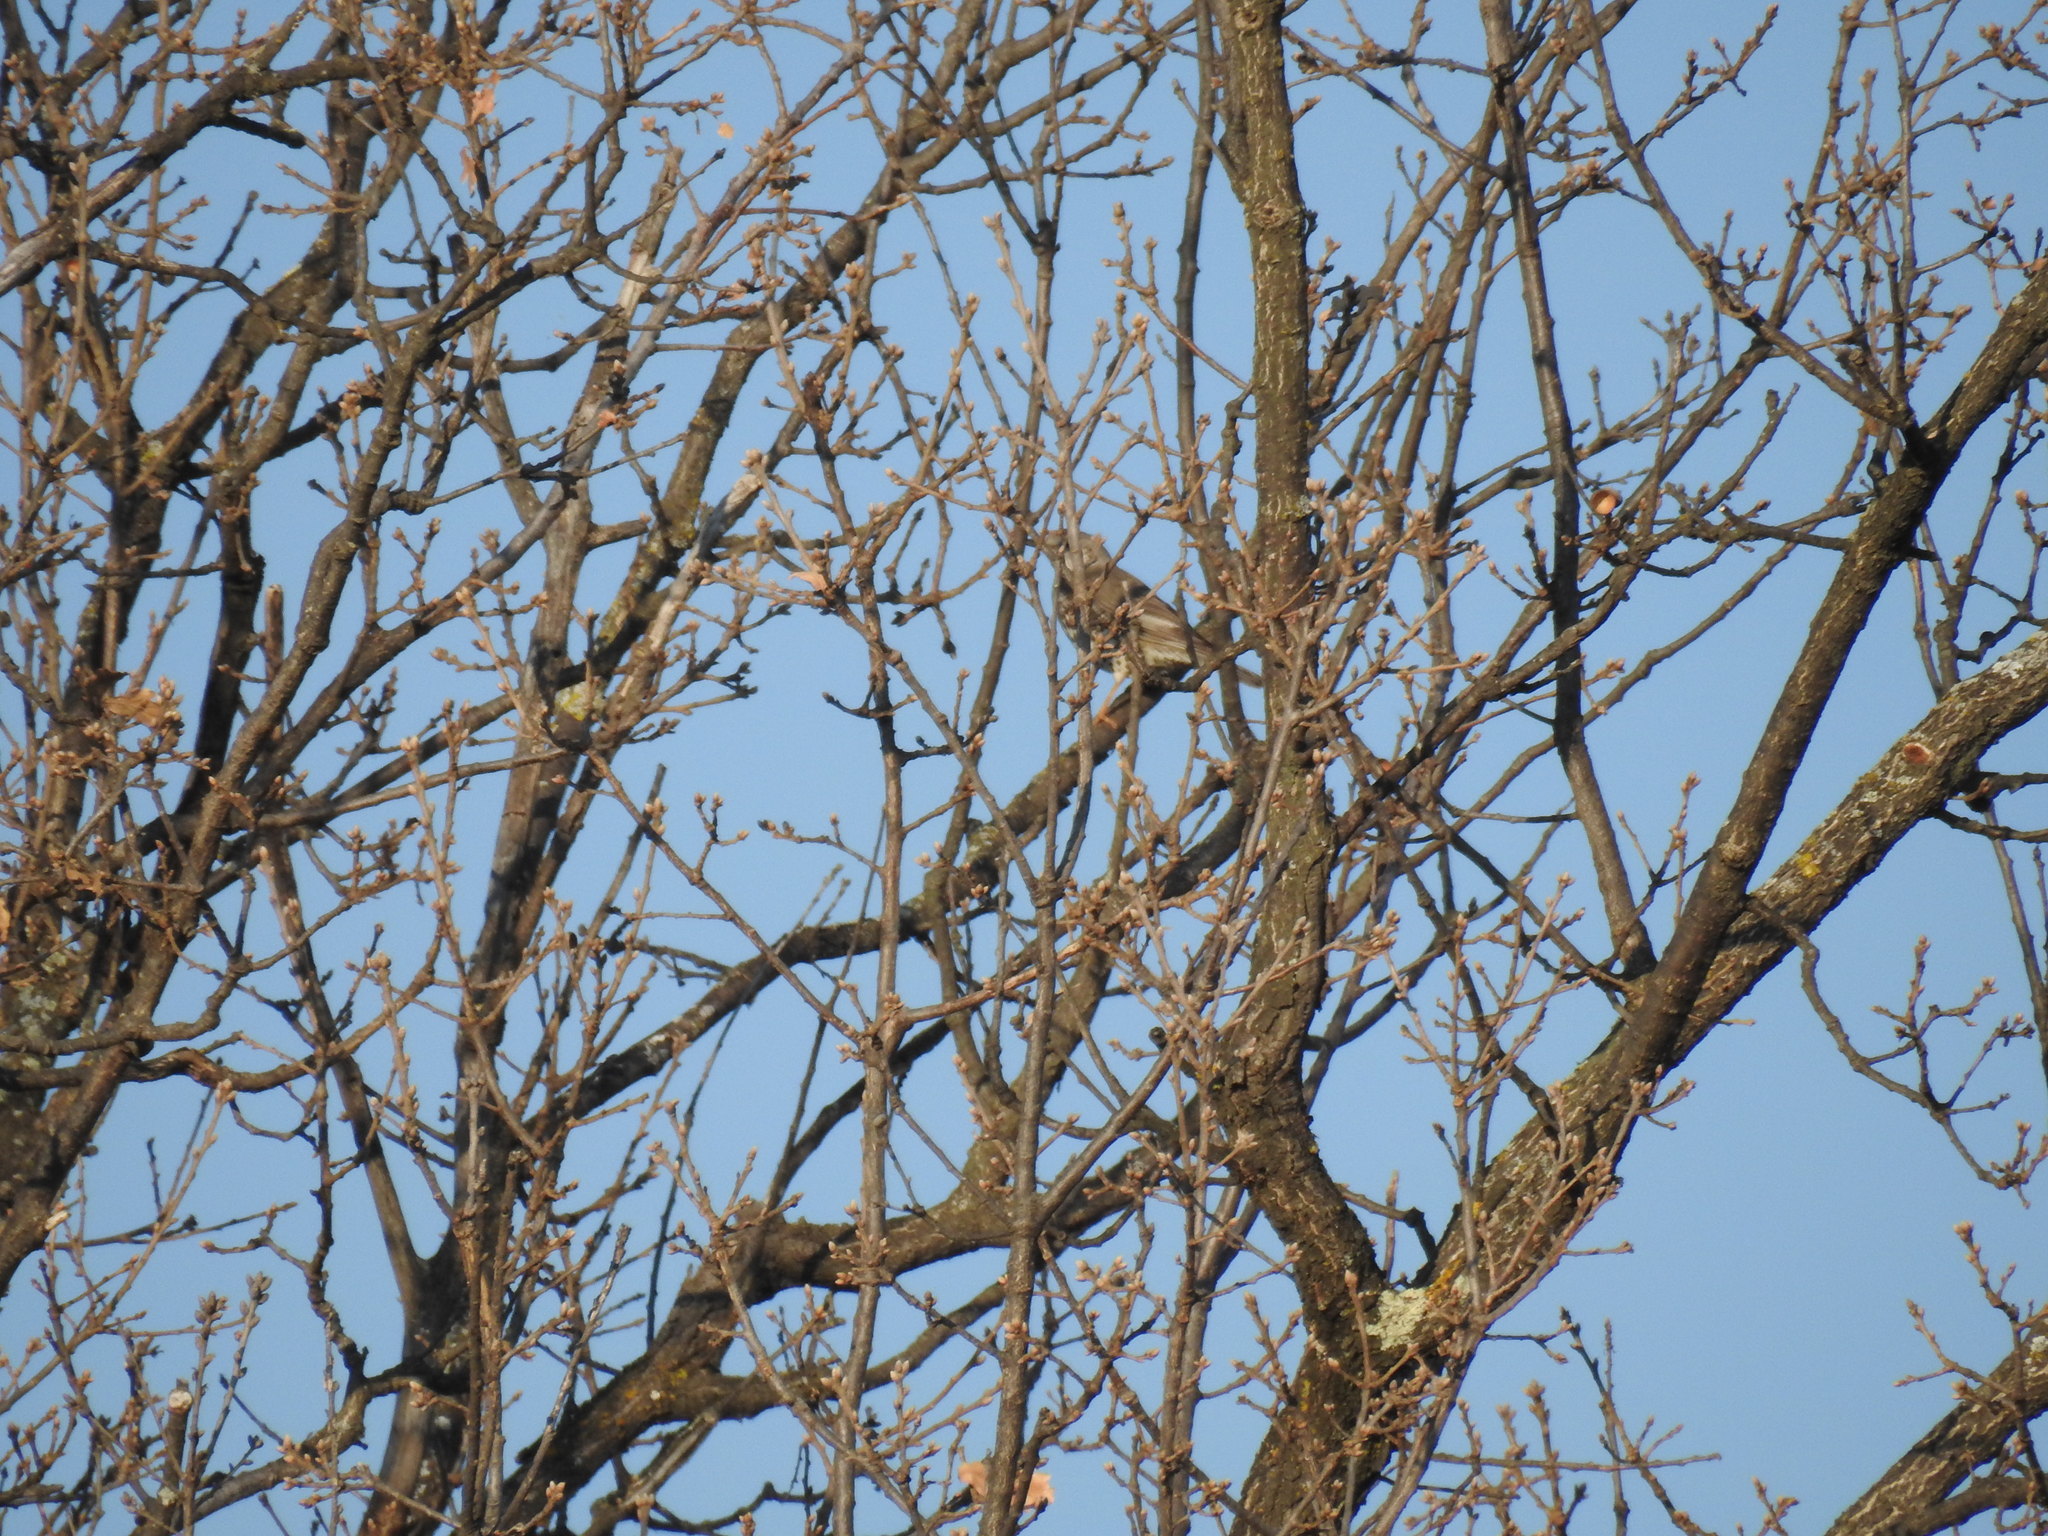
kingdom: Animalia
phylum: Chordata
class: Aves
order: Passeriformes
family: Turdidae
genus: Turdus
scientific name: Turdus viscivorus
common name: Mistle thrush
